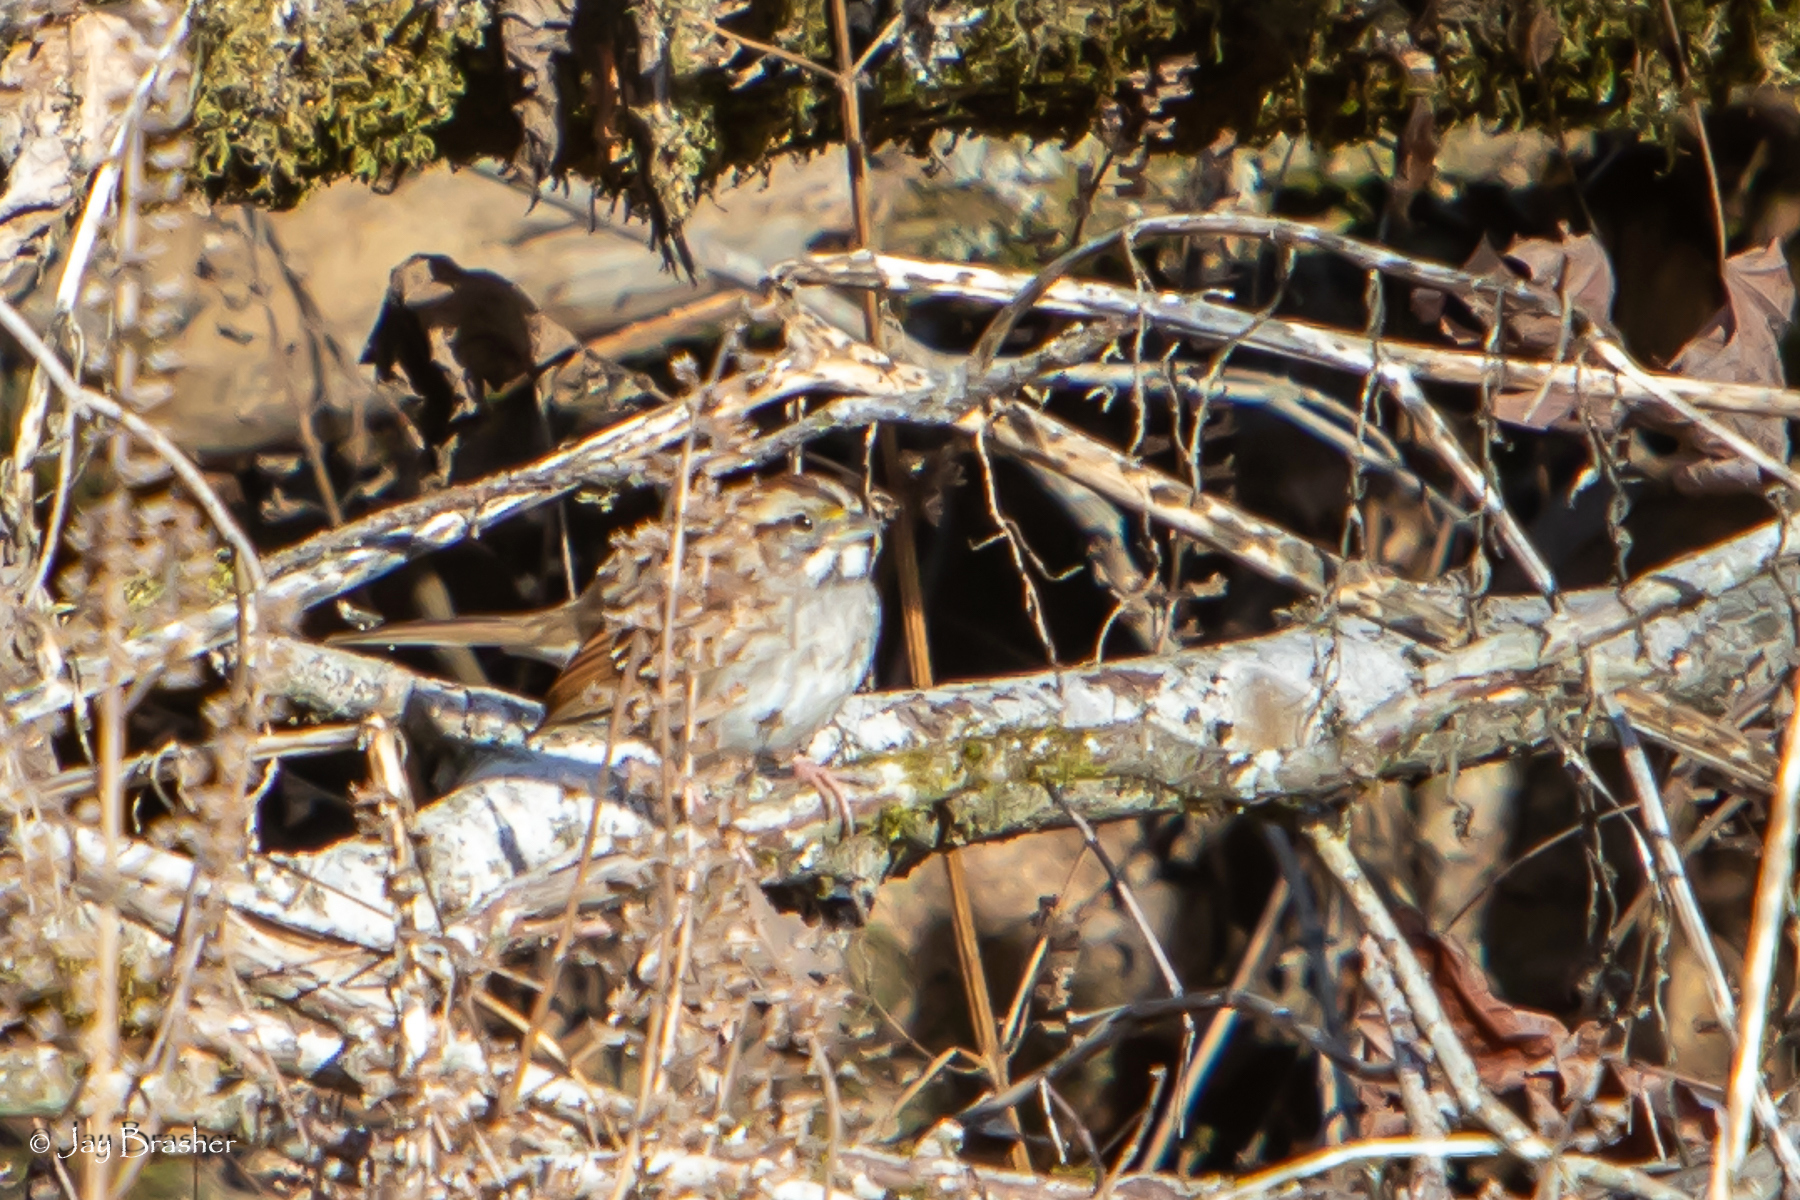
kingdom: Animalia
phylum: Chordata
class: Aves
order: Passeriformes
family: Passerellidae
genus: Zonotrichia
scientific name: Zonotrichia albicollis
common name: White-throated sparrow
